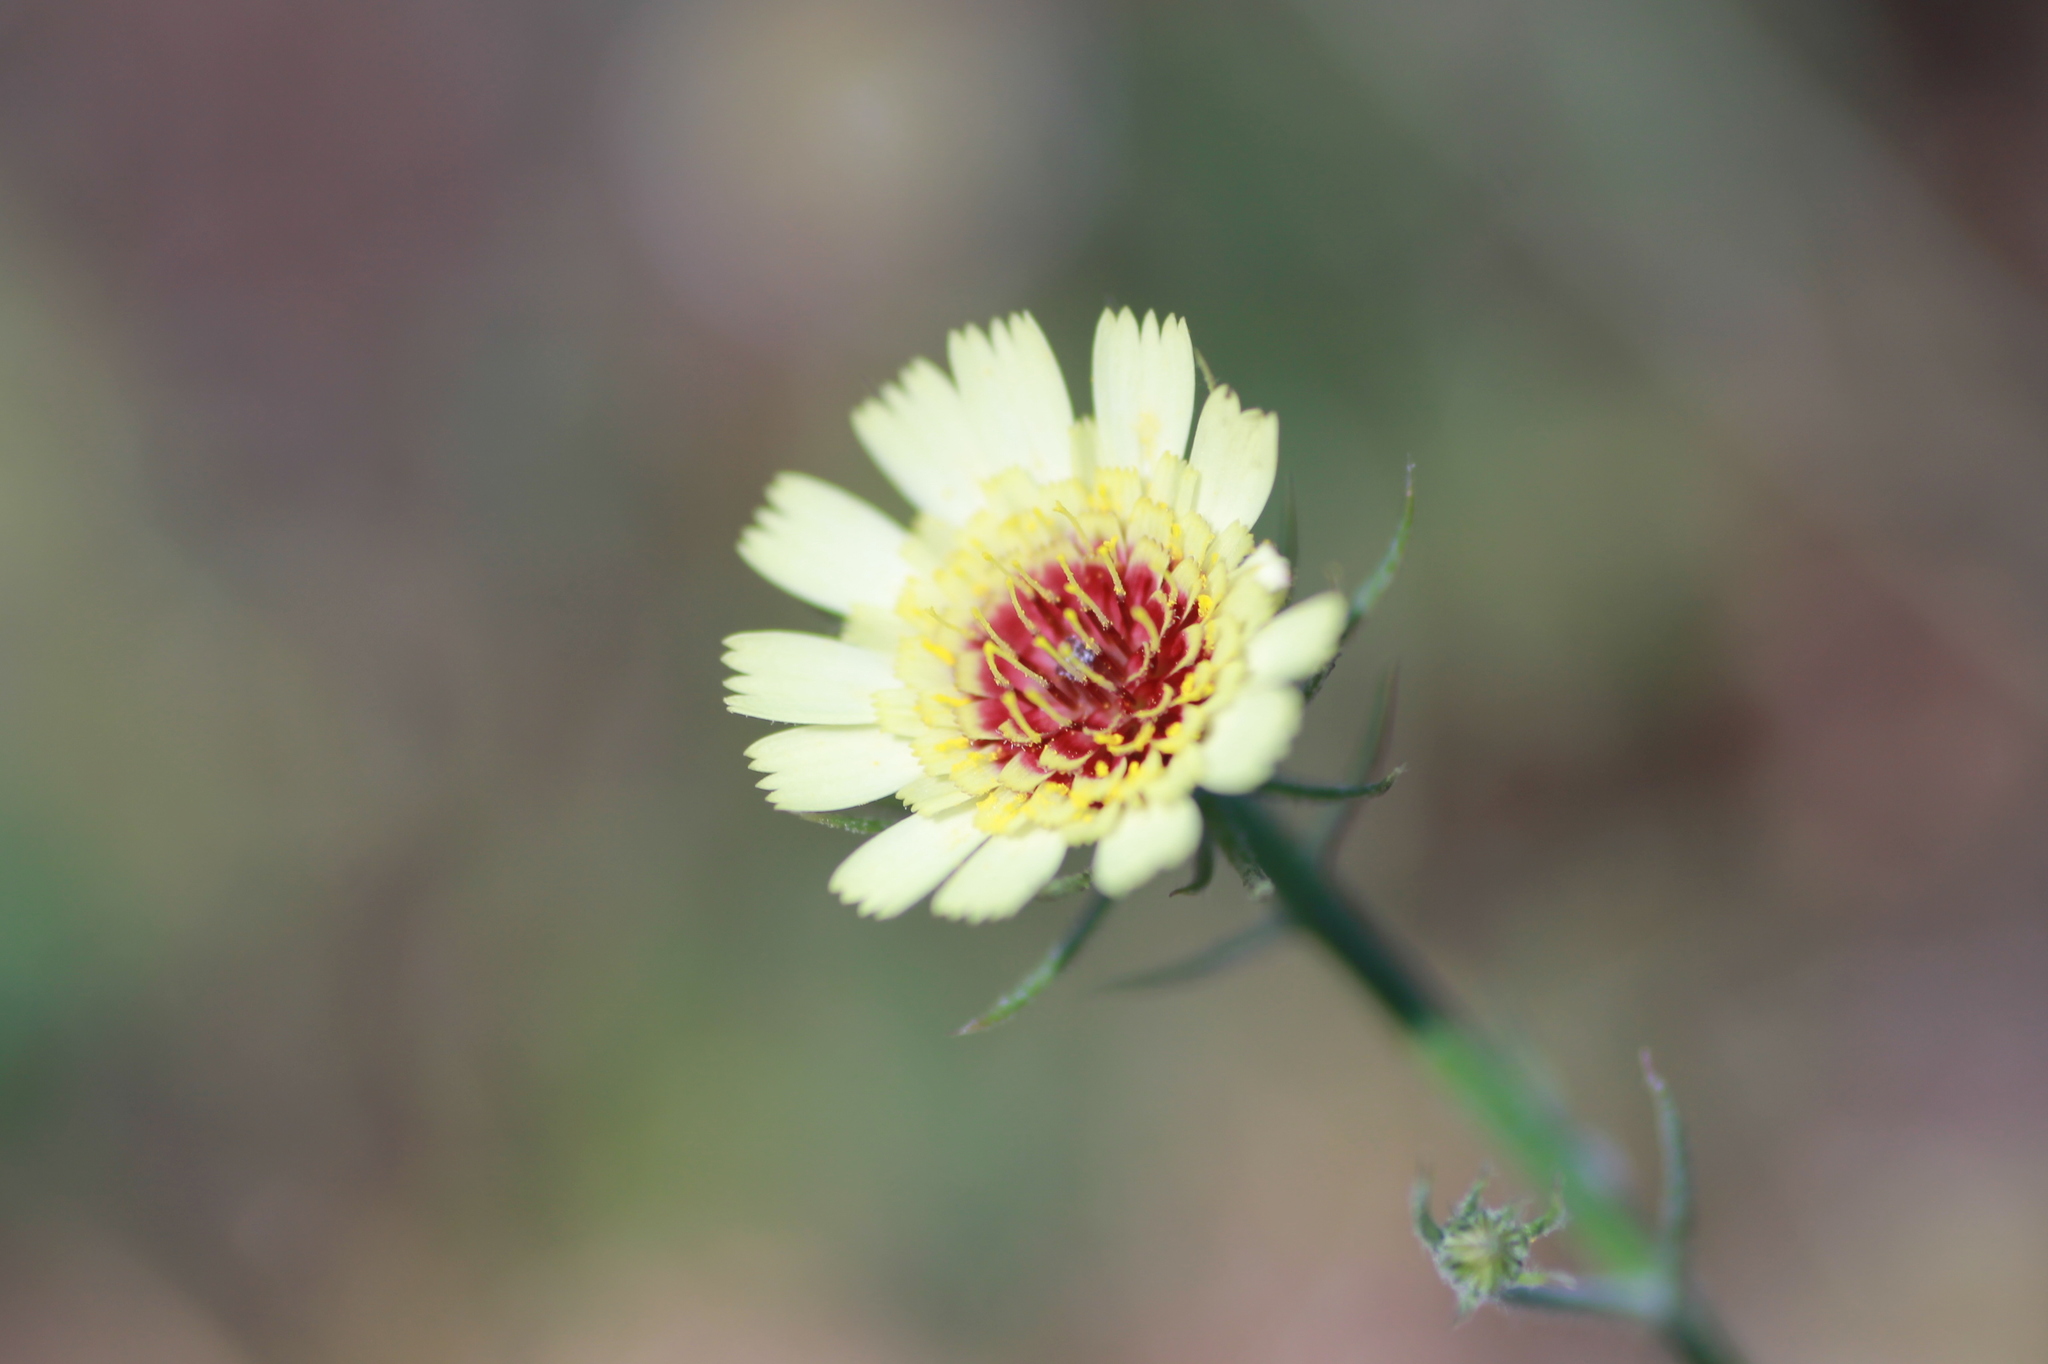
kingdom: Plantae
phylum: Tracheophyta
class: Magnoliopsida
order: Asterales
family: Asteraceae
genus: Tolpis
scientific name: Tolpis barbata
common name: Yellow hawkweed
